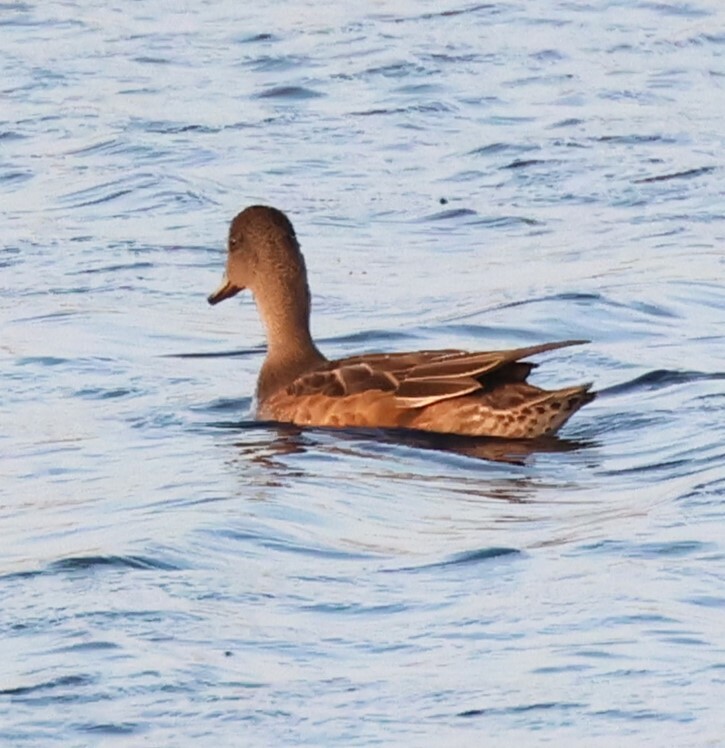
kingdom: Animalia
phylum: Chordata
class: Aves
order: Anseriformes
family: Anatidae
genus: Mareca
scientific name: Mareca americana
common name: American wigeon
